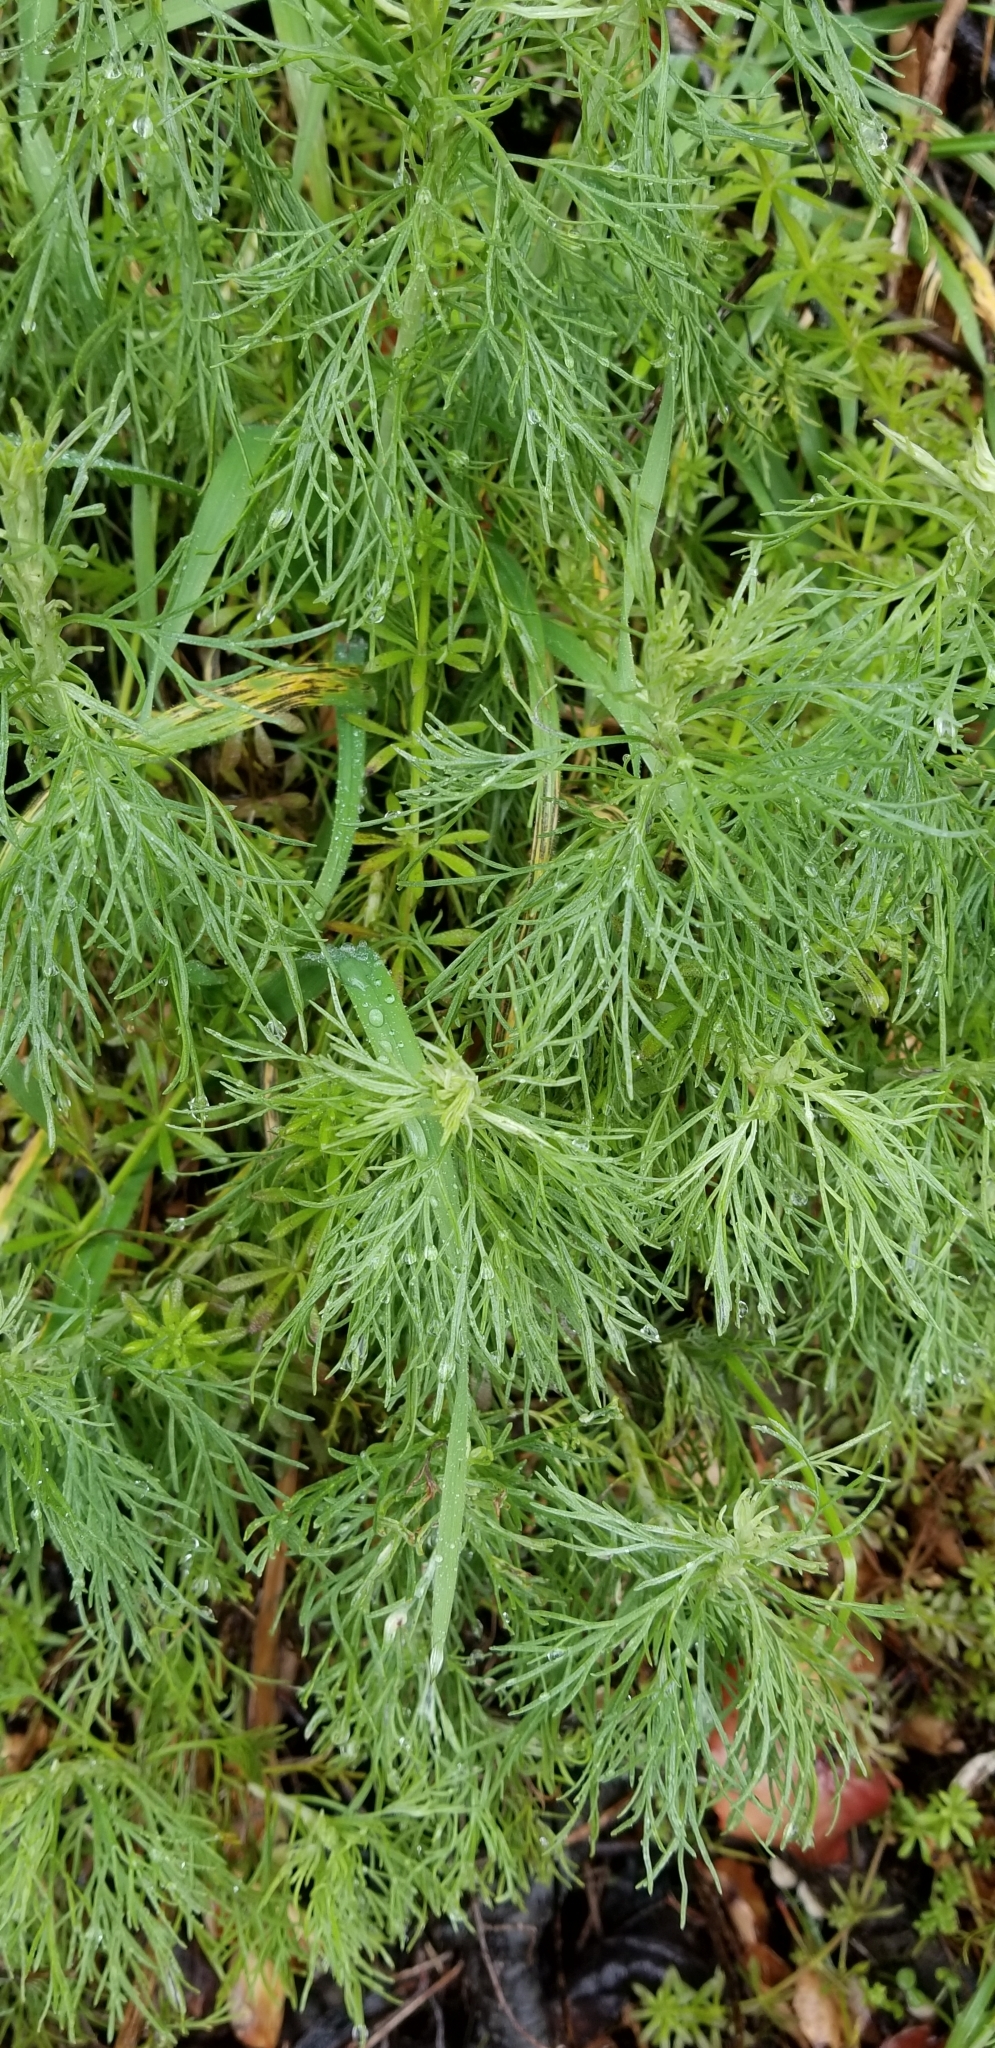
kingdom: Plantae
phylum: Tracheophyta
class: Magnoliopsida
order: Asterales
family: Asteraceae
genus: Artemisia
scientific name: Artemisia californica
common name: California sagebrush
